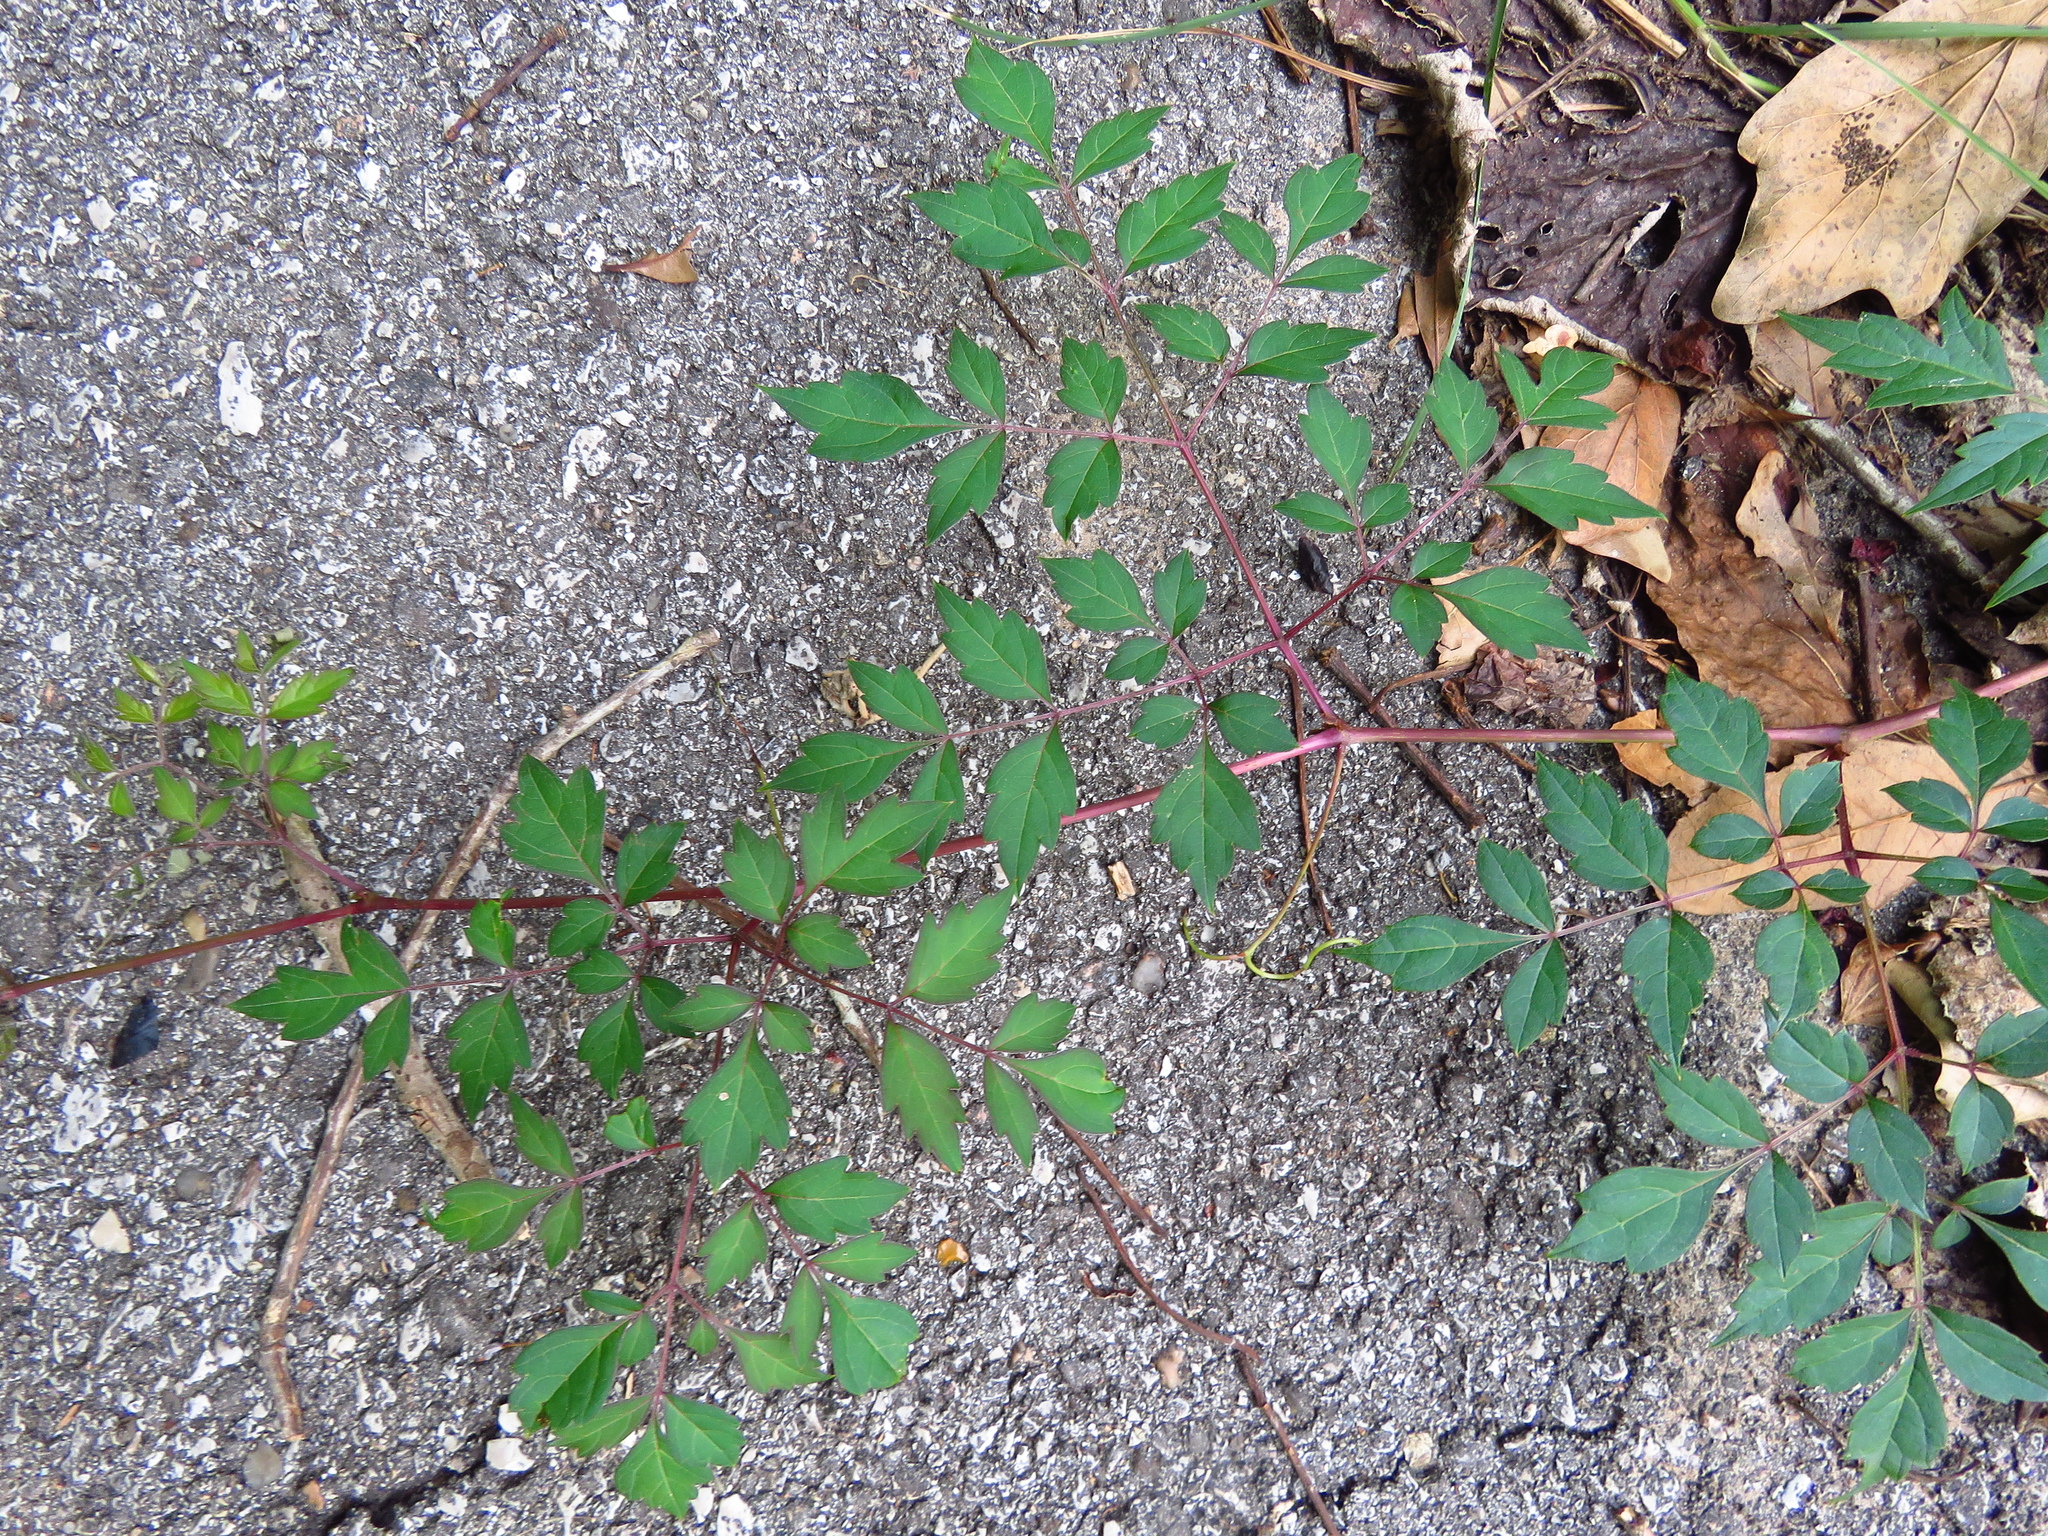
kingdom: Plantae
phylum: Tracheophyta
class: Magnoliopsida
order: Vitales
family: Vitaceae
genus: Nekemias
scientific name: Nekemias arborea
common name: Peppervine
